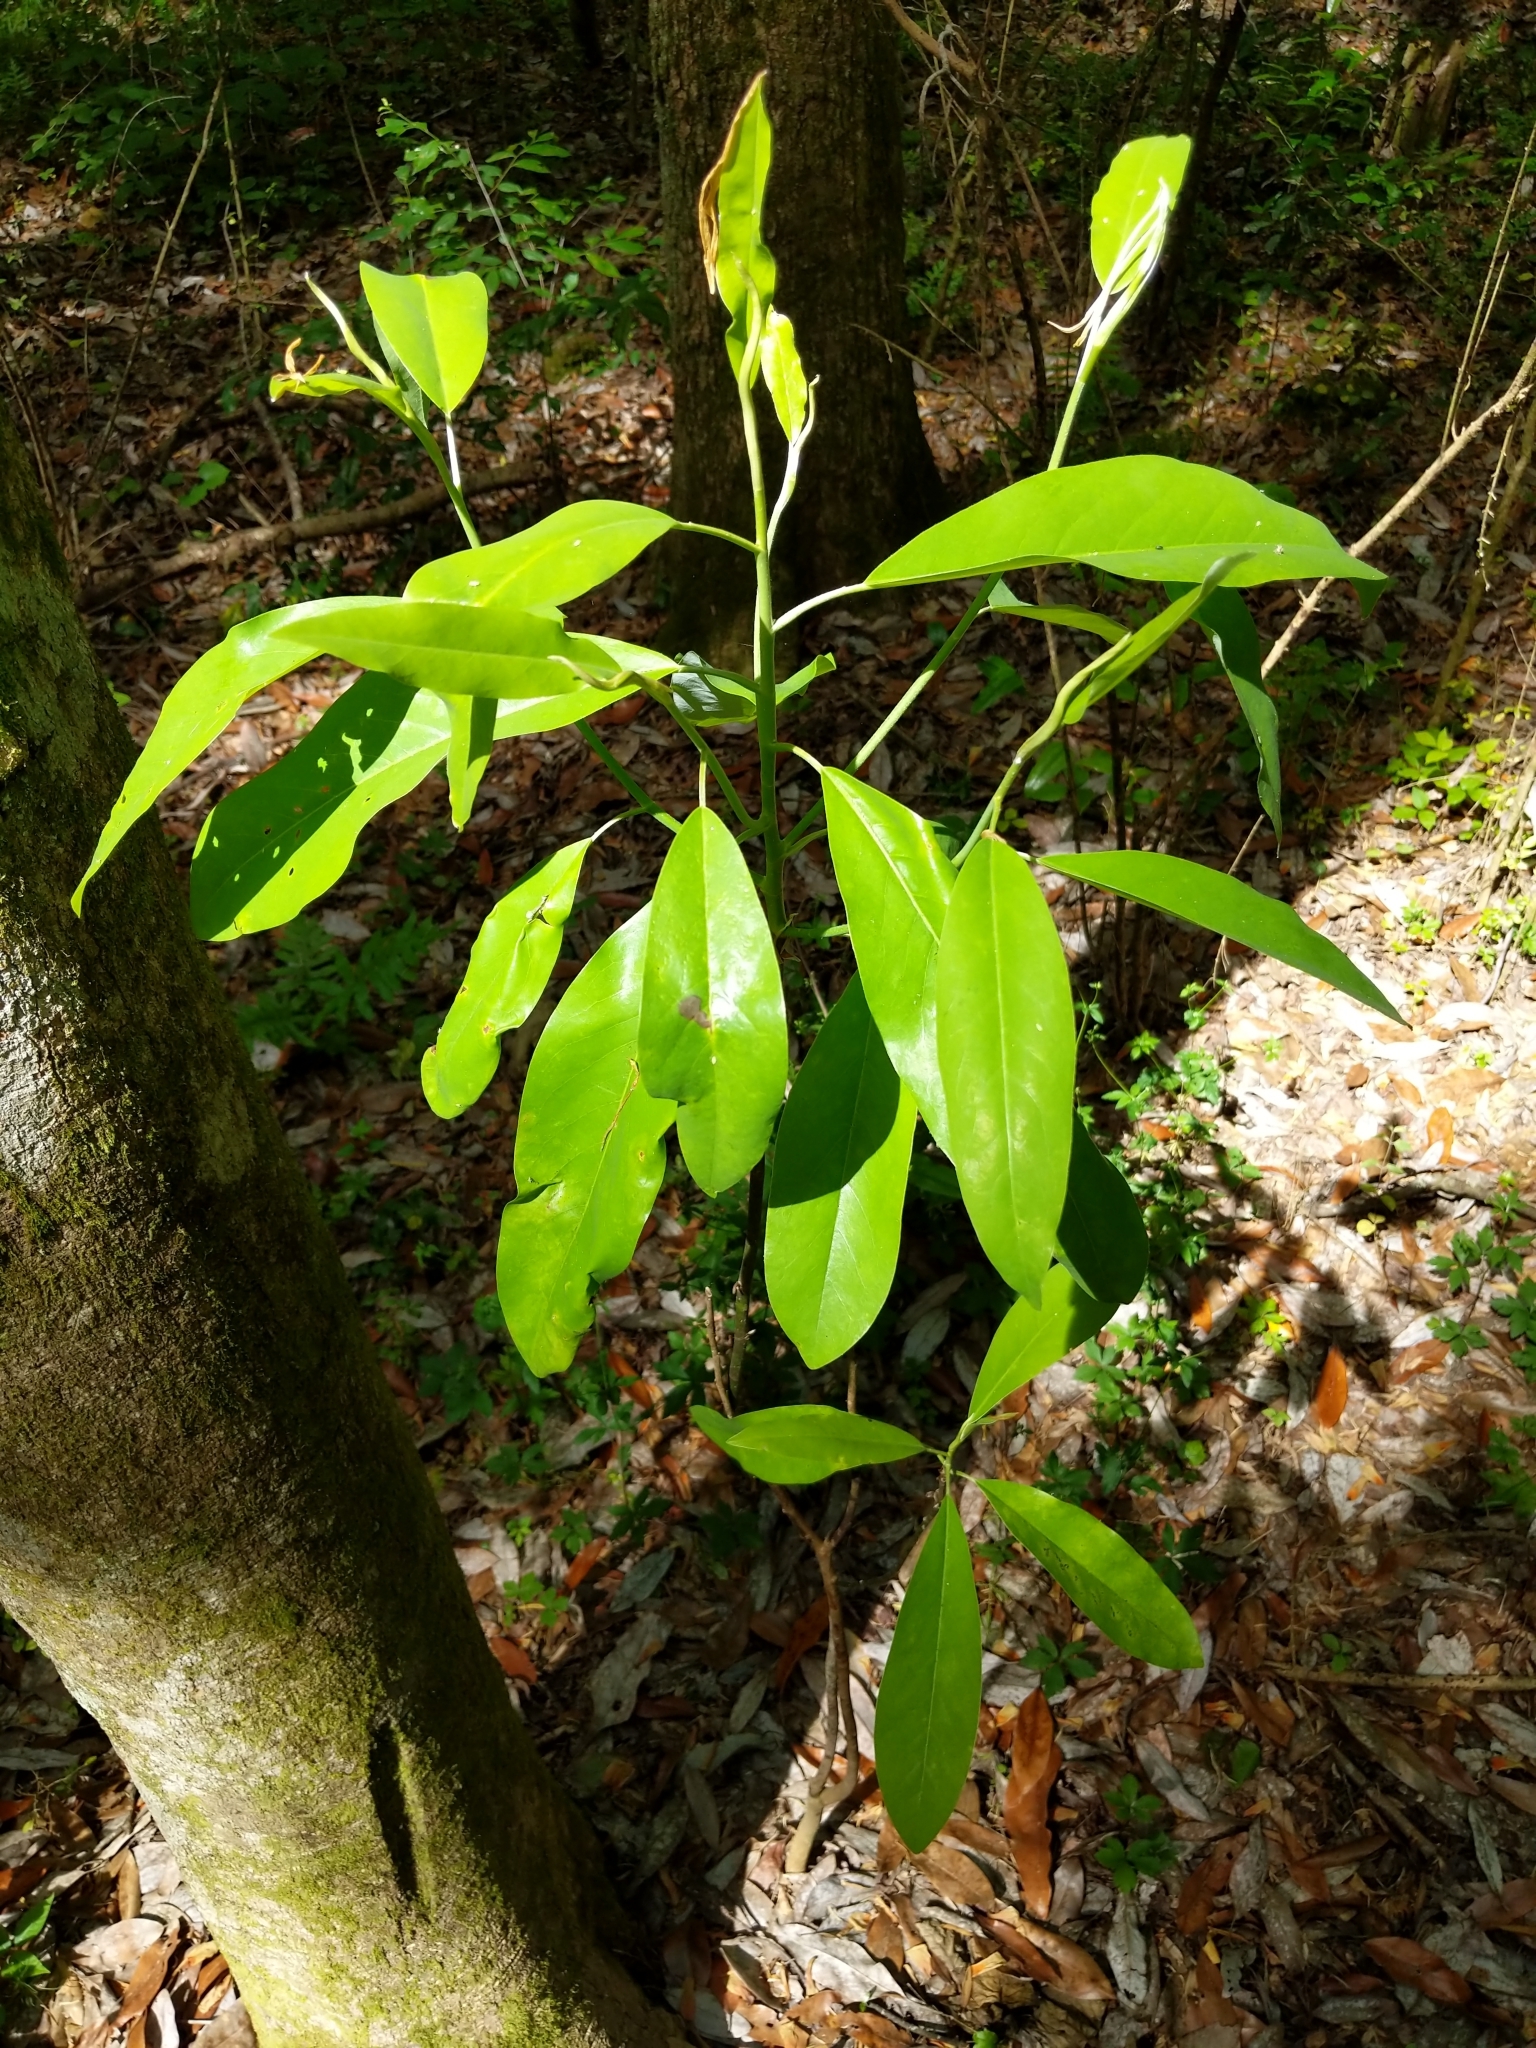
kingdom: Plantae
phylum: Tracheophyta
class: Magnoliopsida
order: Magnoliales
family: Magnoliaceae
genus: Magnolia
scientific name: Magnolia virginiana
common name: Swamp bay
